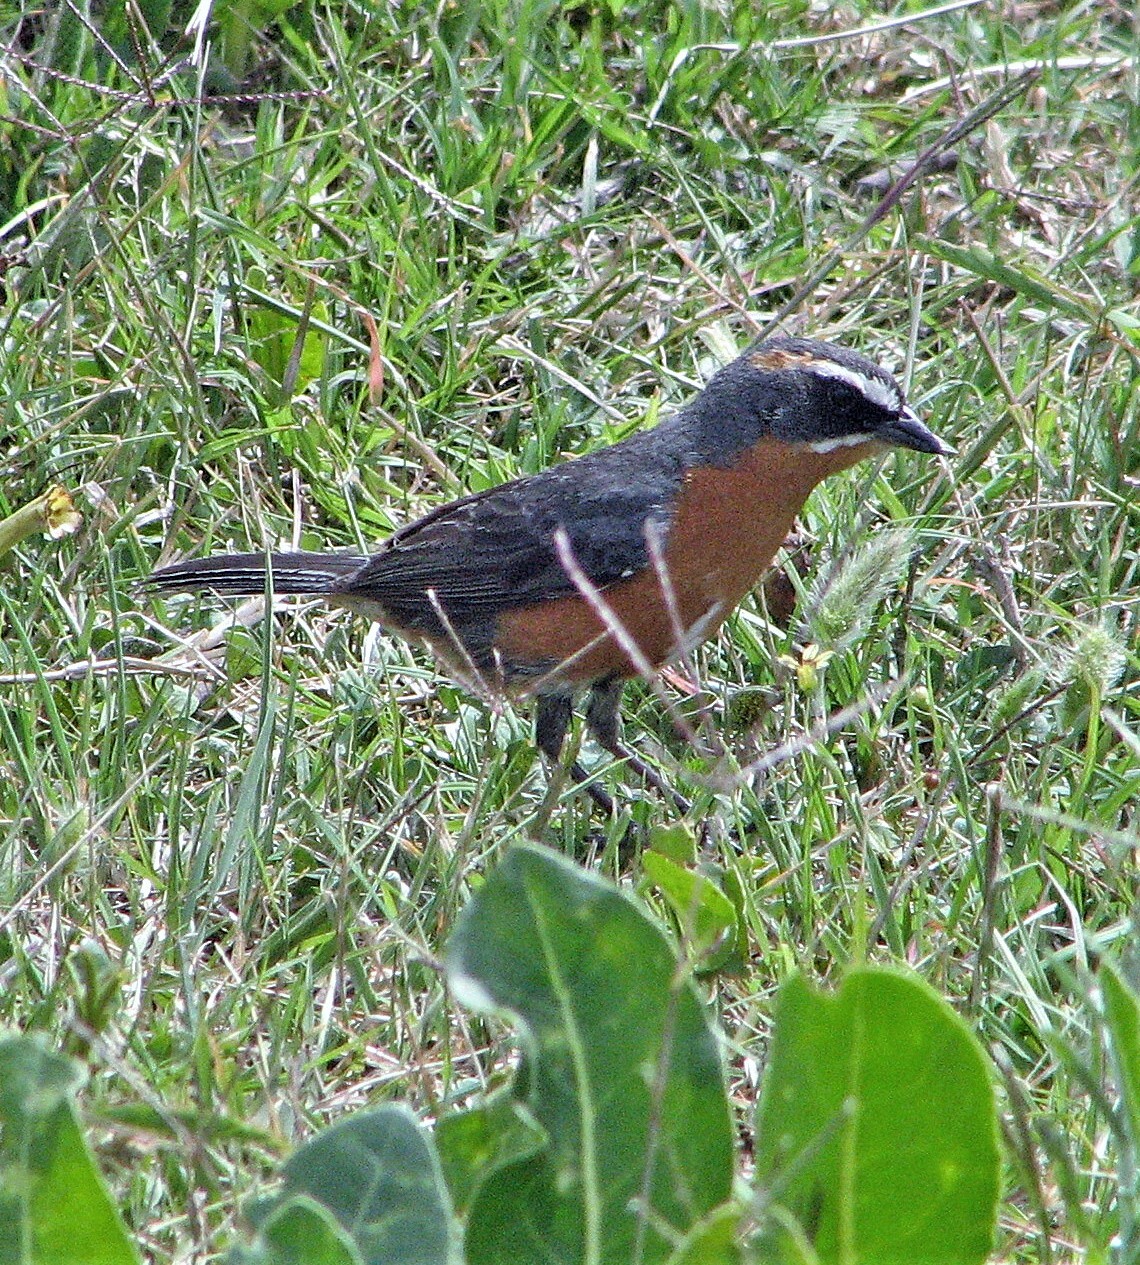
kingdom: Animalia
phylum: Chordata
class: Aves
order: Passeriformes
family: Thraupidae
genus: Poospiza
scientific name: Poospiza nigrorufa
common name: Black-and-rufous warbling finch
